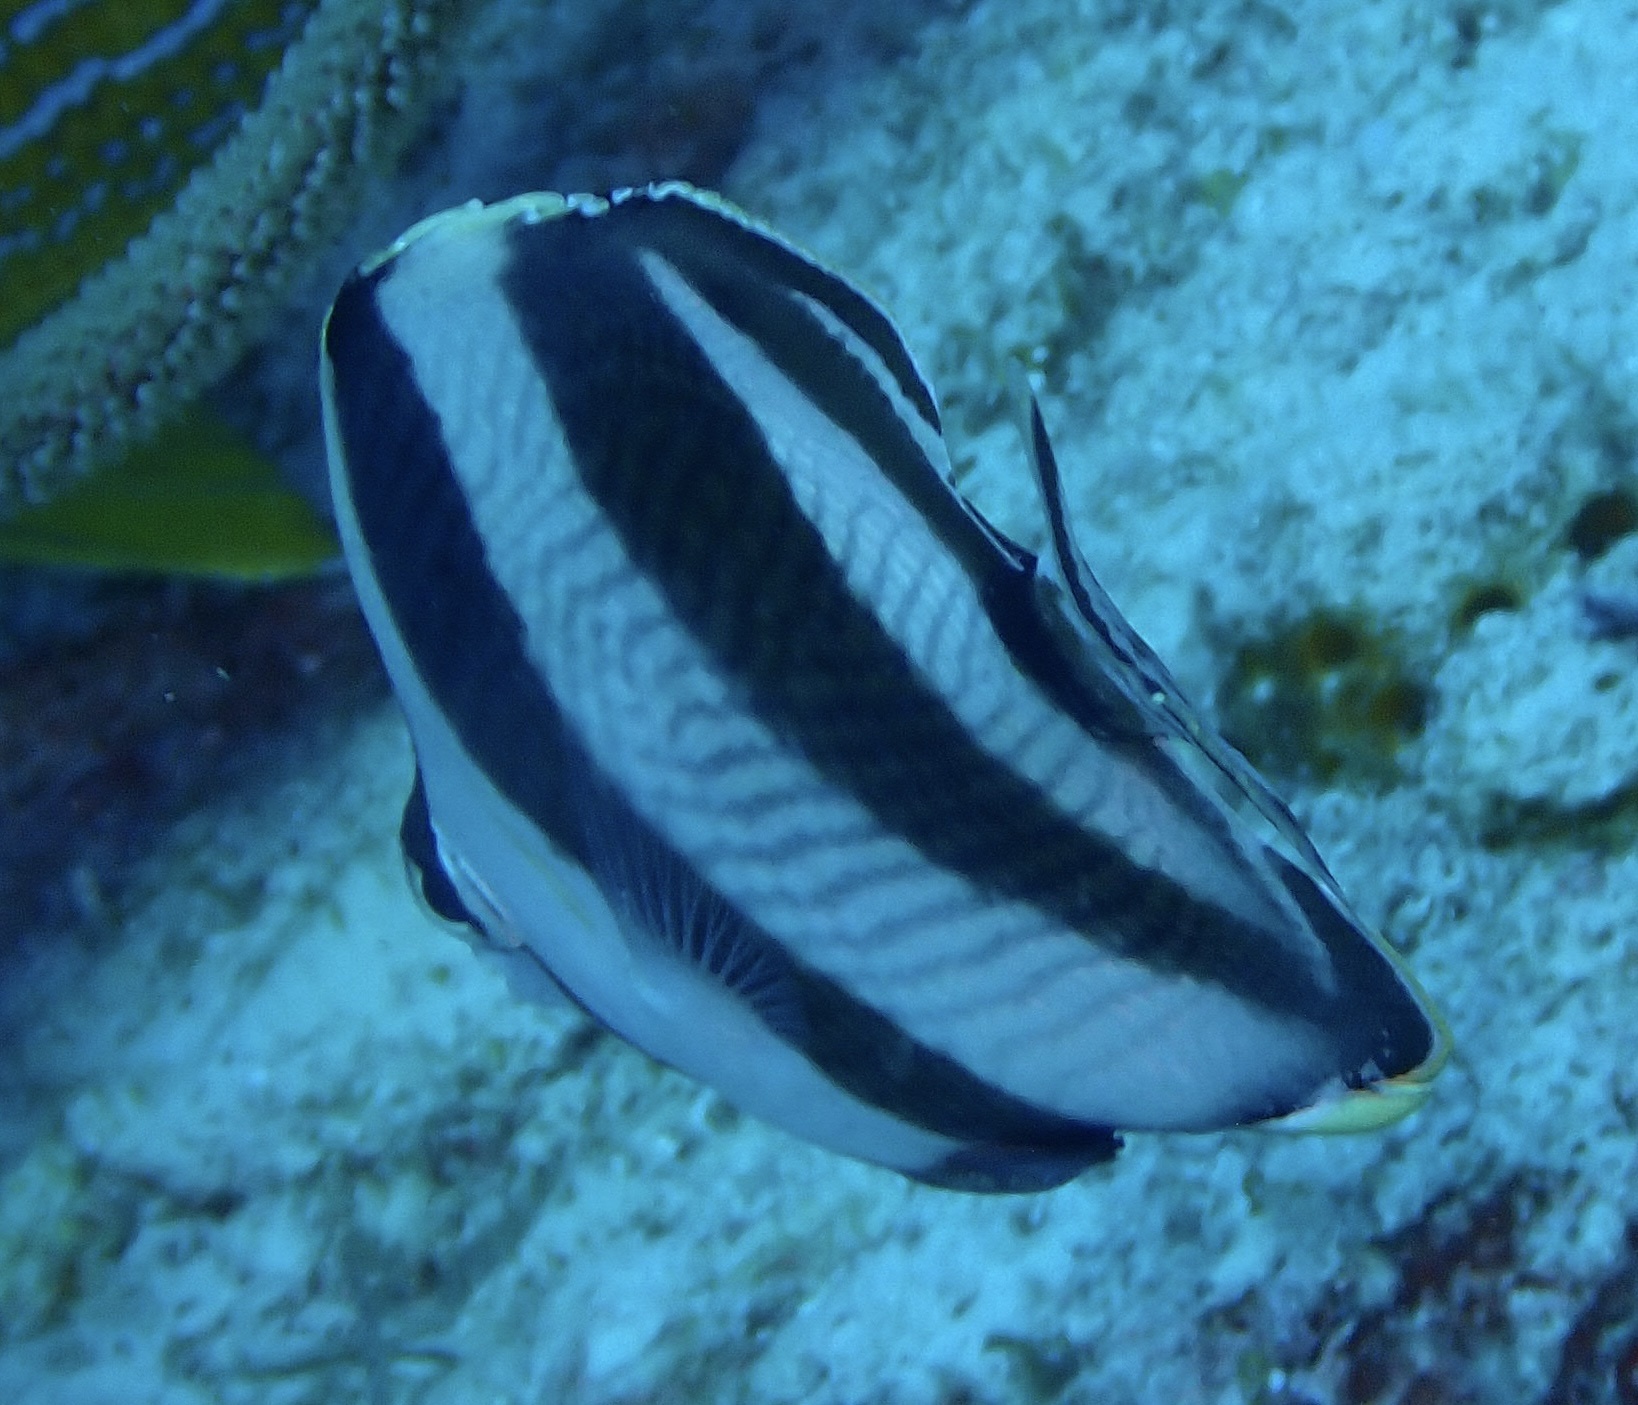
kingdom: Animalia
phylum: Chordata
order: Perciformes
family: Chaetodontidae
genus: Chaetodon
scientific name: Chaetodon striatus
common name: Banded butterflyfish
